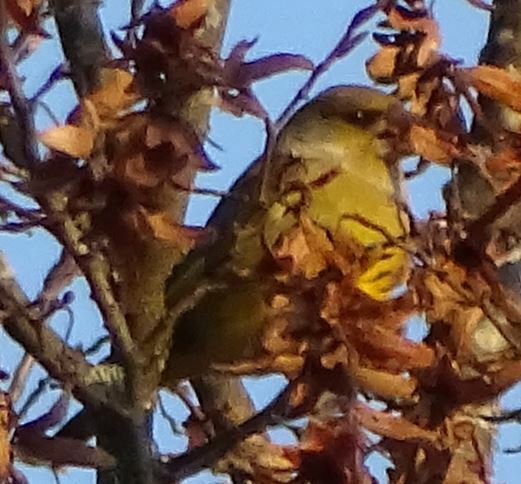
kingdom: Plantae
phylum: Tracheophyta
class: Liliopsida
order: Poales
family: Poaceae
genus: Chloris
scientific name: Chloris chloris
